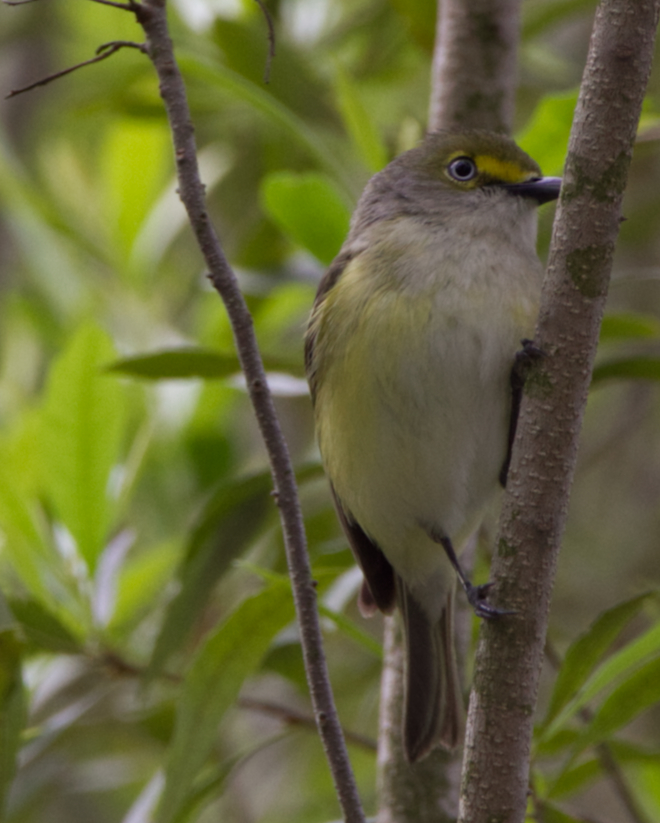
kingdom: Animalia
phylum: Chordata
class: Aves
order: Passeriformes
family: Vireonidae
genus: Vireo
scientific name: Vireo griseus
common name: White-eyed vireo
